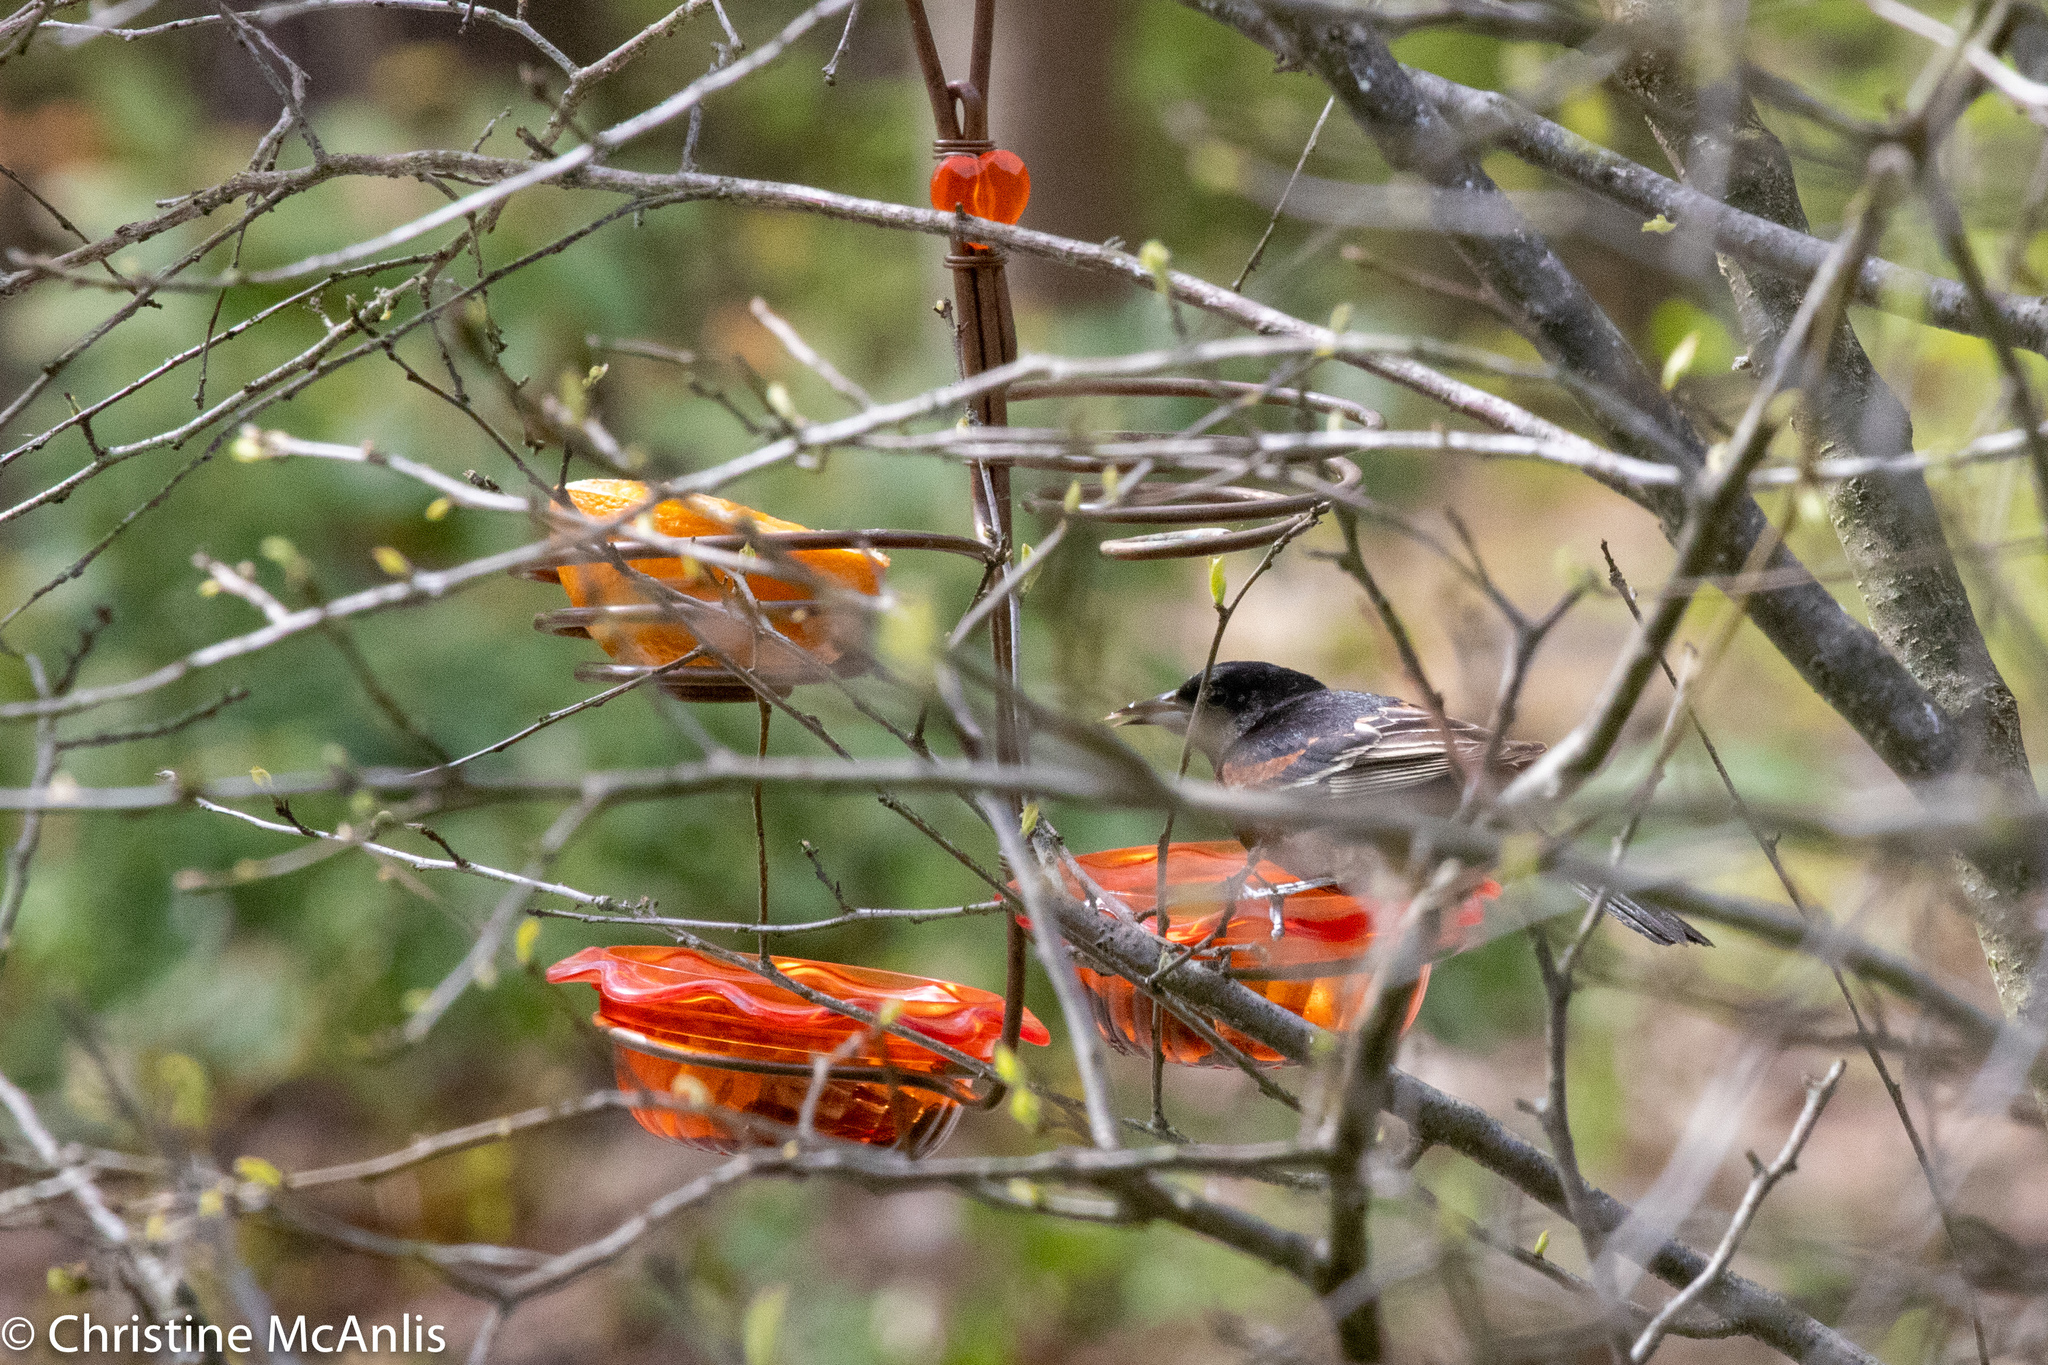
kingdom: Animalia
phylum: Chordata
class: Aves
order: Passeriformes
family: Icteridae
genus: Icterus
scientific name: Icterus spurius
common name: Orchard oriole
